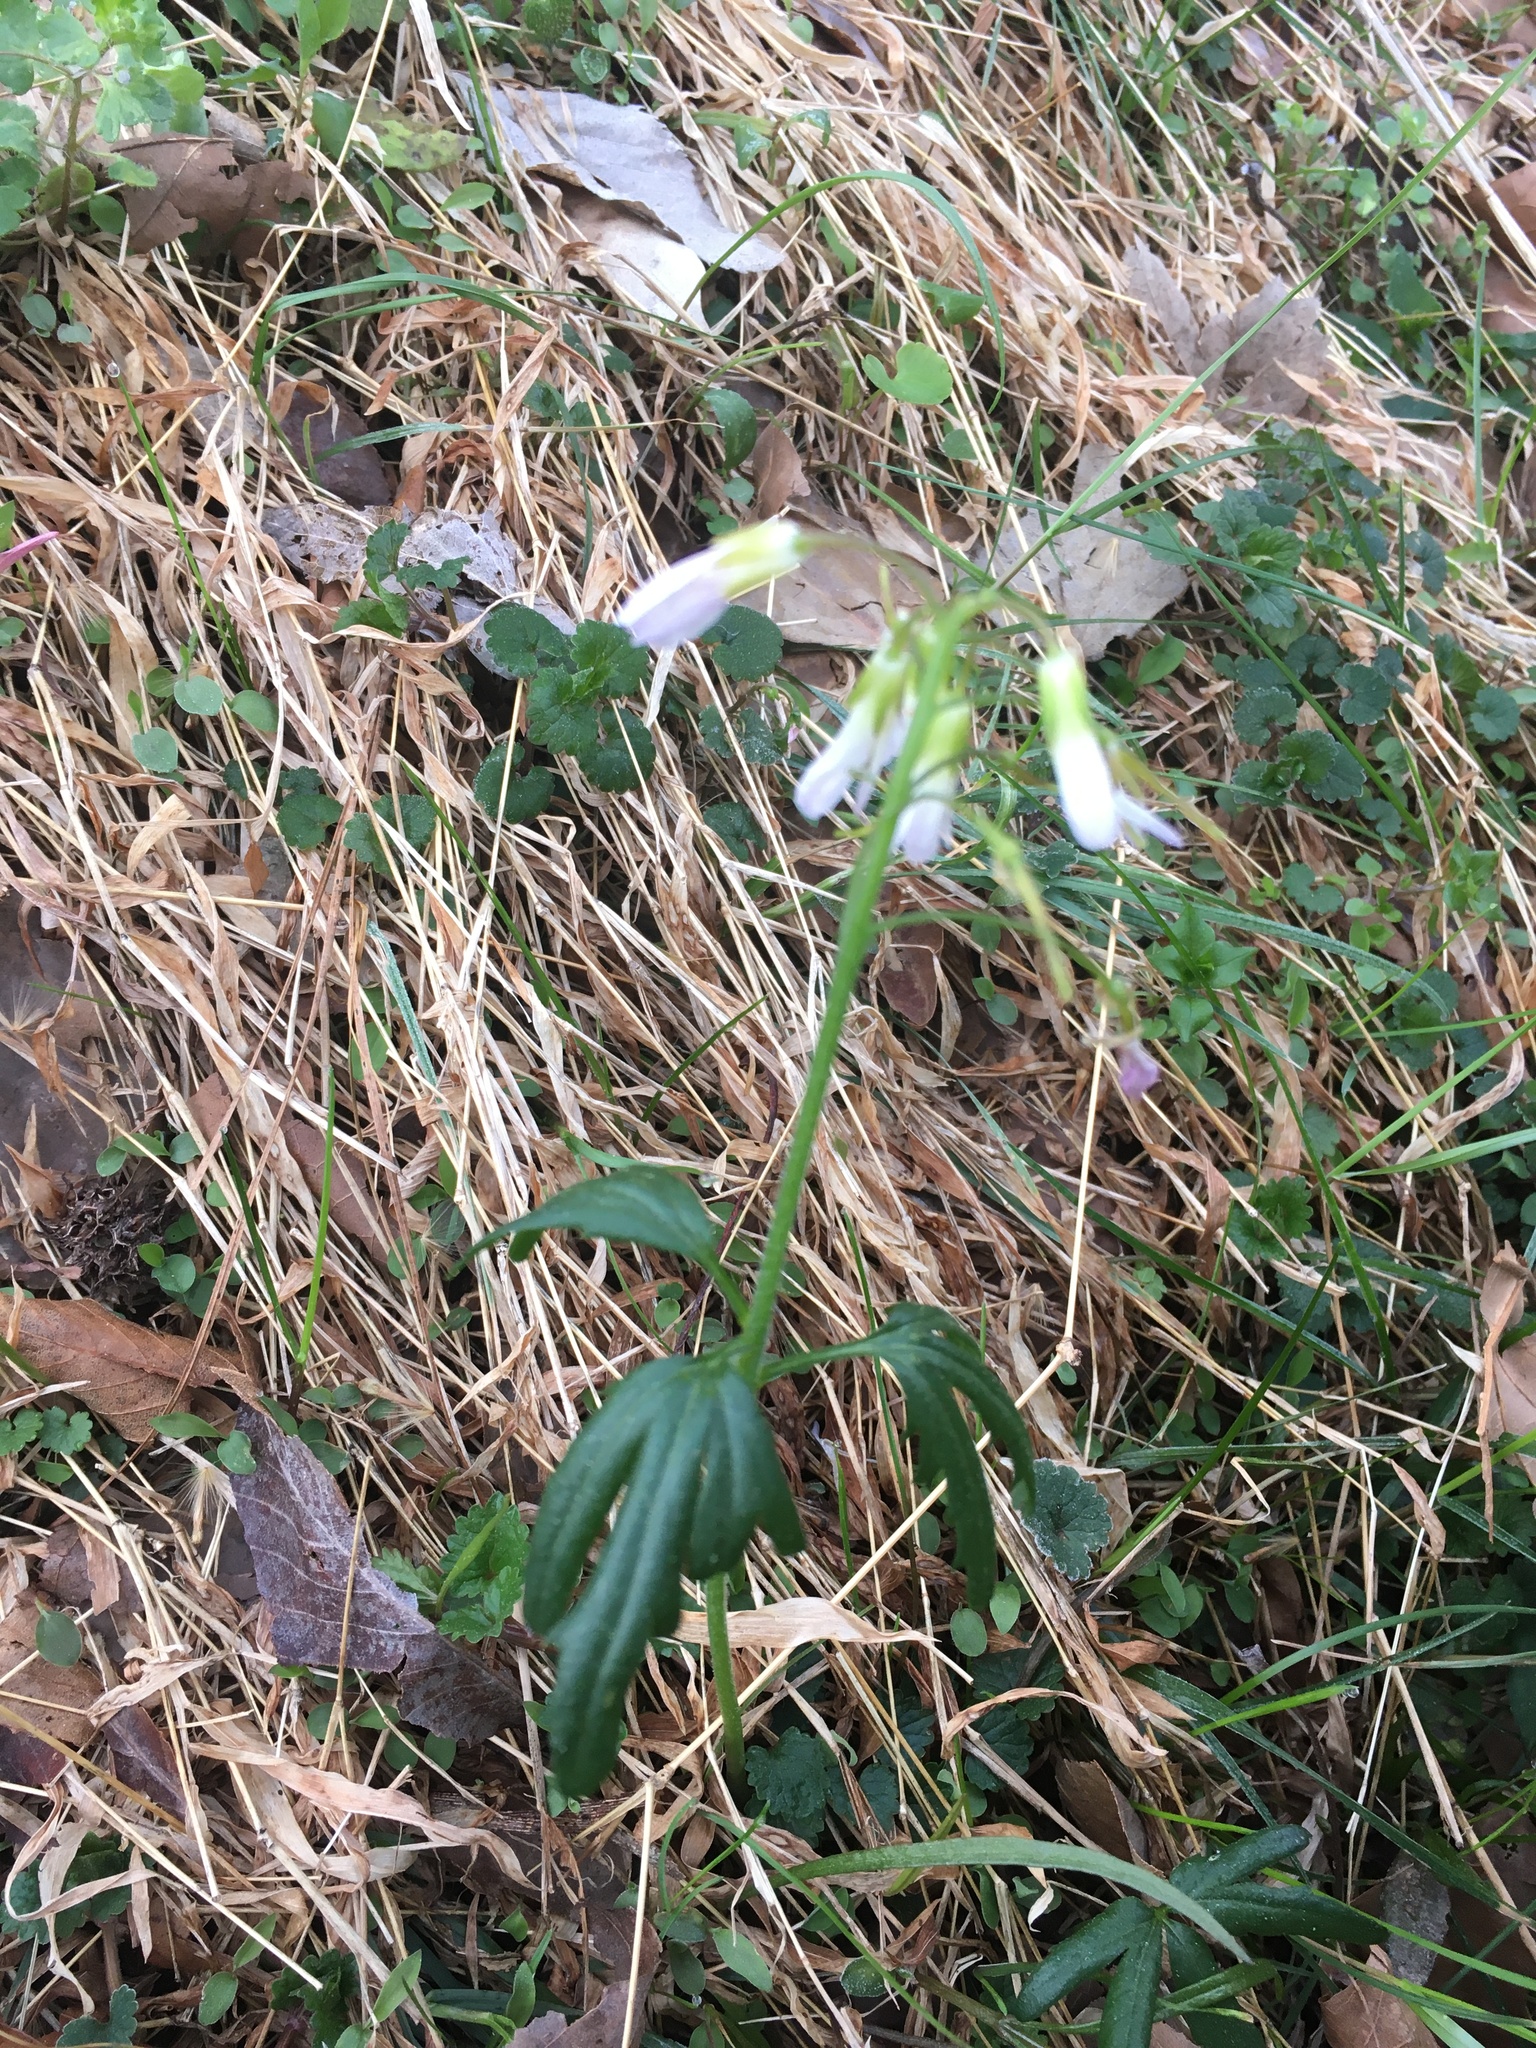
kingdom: Plantae
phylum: Tracheophyta
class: Magnoliopsida
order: Brassicales
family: Brassicaceae
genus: Cardamine
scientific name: Cardamine concatenata
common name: Cut-leaf toothcup
